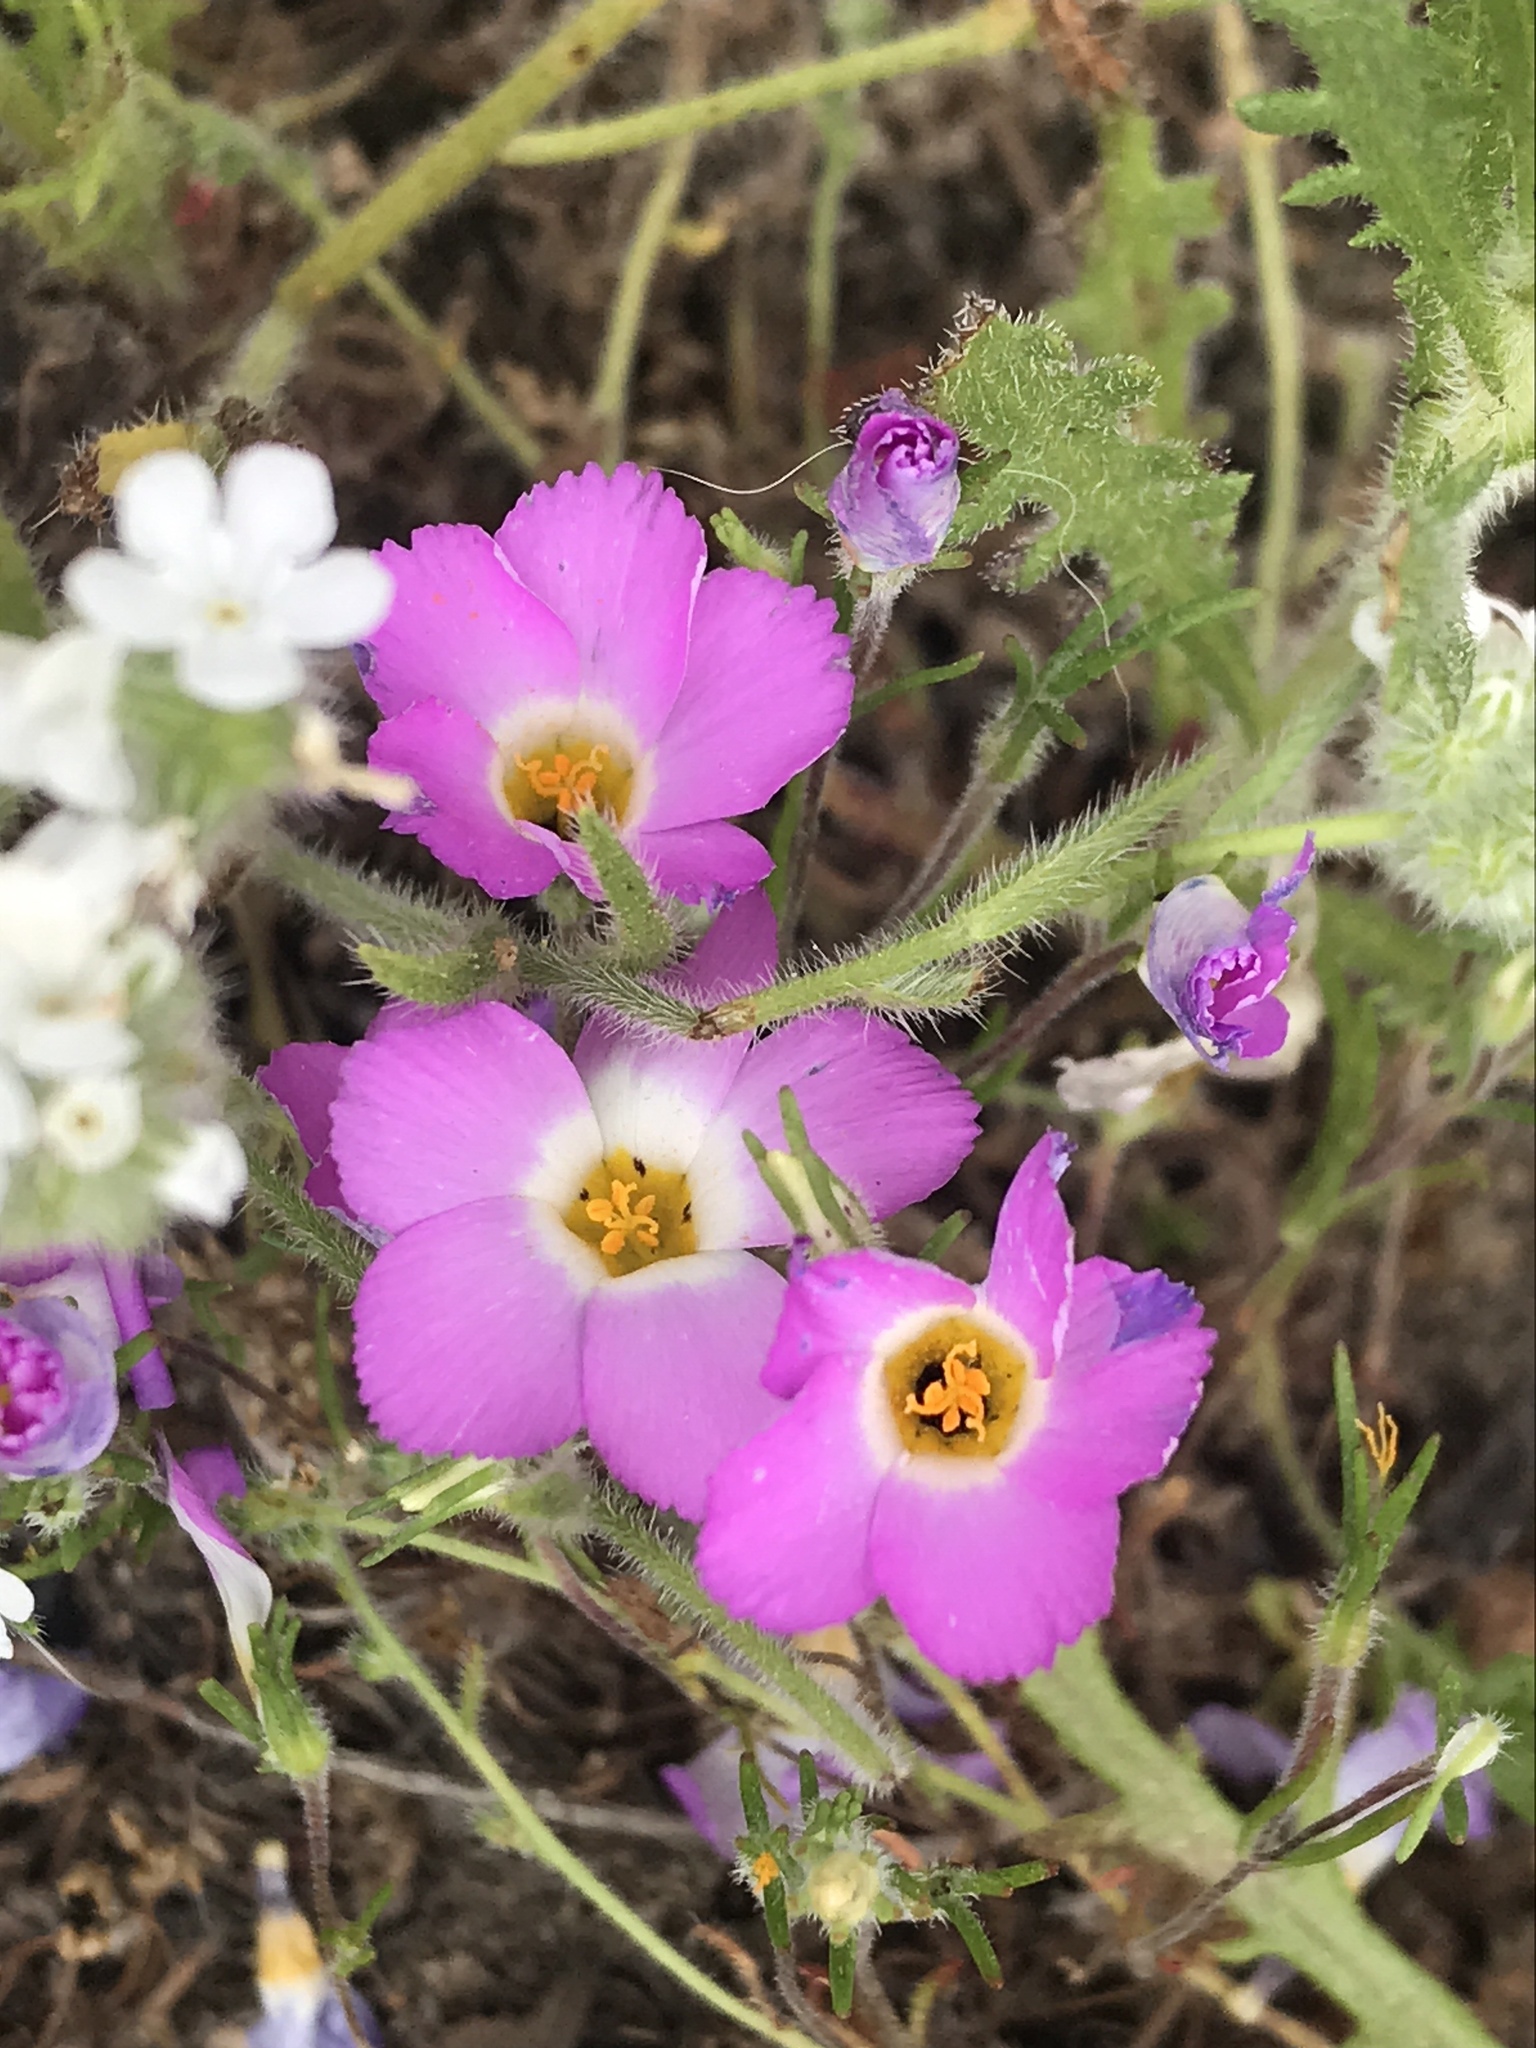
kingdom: Plantae
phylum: Tracheophyta
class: Magnoliopsida
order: Ericales
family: Polemoniaceae
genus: Linanthus
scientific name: Linanthus dianthiflorus
